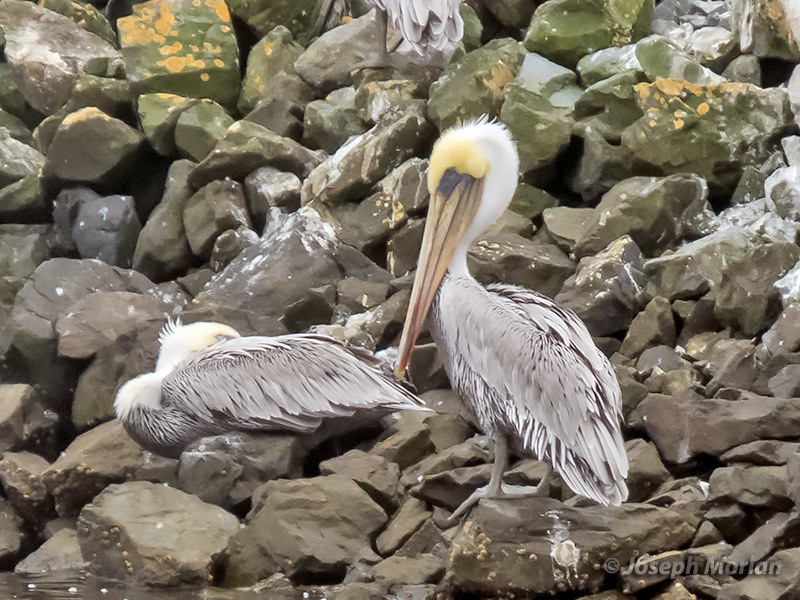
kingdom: Animalia
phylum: Chordata
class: Aves
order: Pelecaniformes
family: Pelecanidae
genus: Pelecanus
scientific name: Pelecanus occidentalis
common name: Brown pelican
